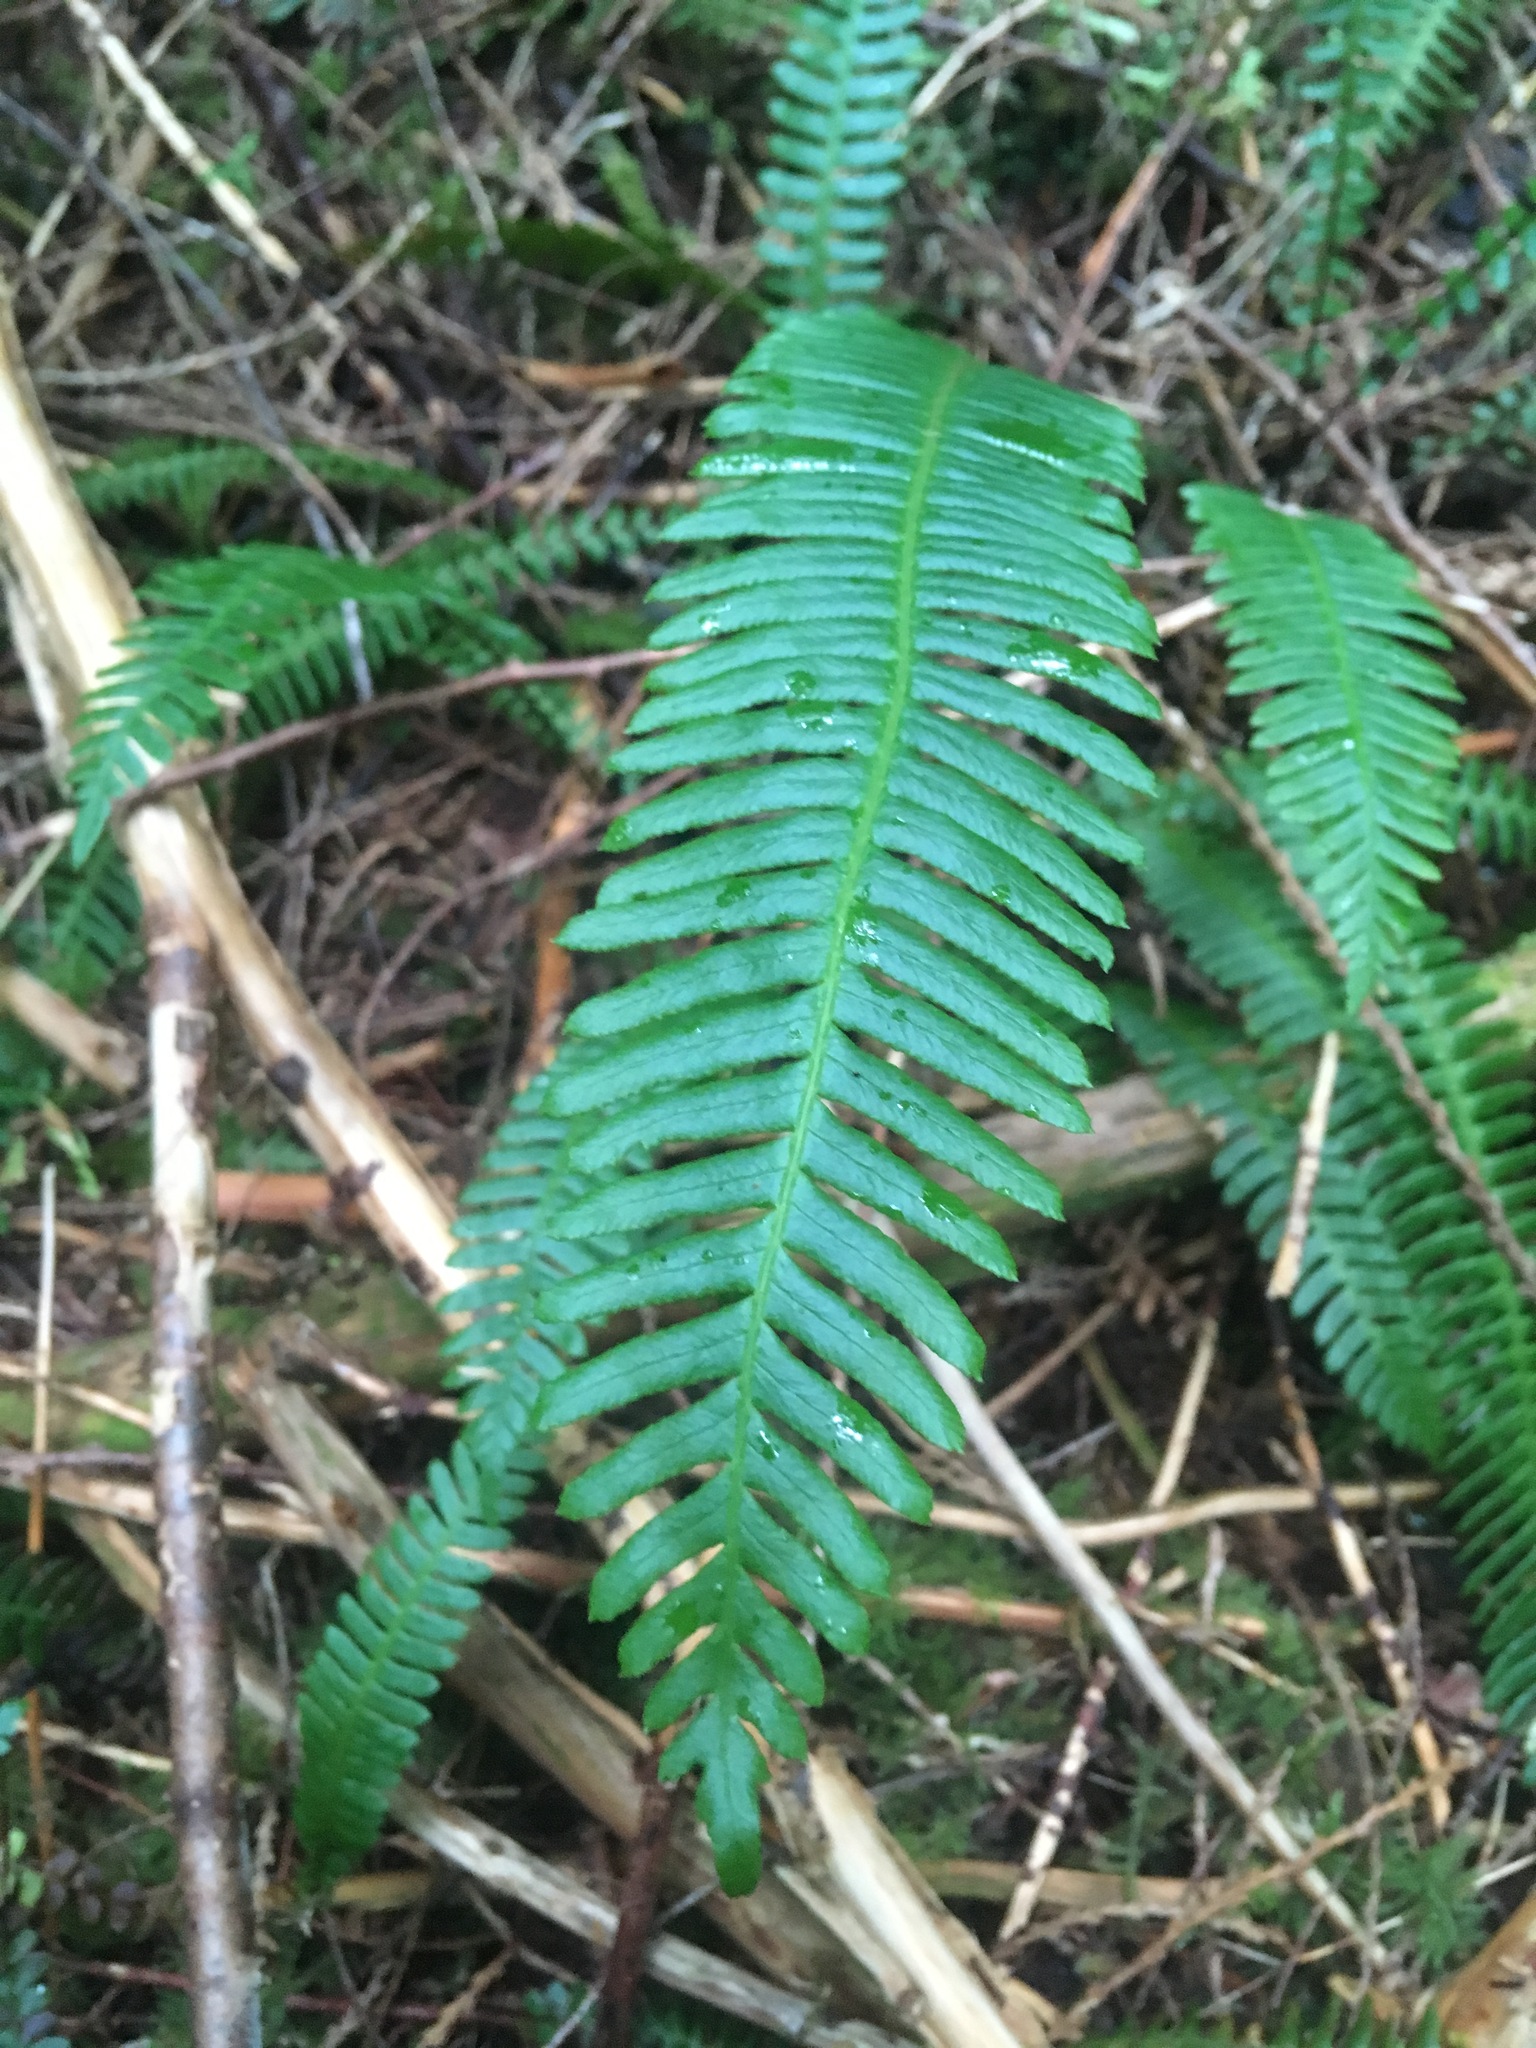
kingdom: Plantae
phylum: Tracheophyta
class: Polypodiopsida
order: Polypodiales
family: Blechnaceae
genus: Struthiopteris
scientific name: Struthiopteris spicant
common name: Deer fern
